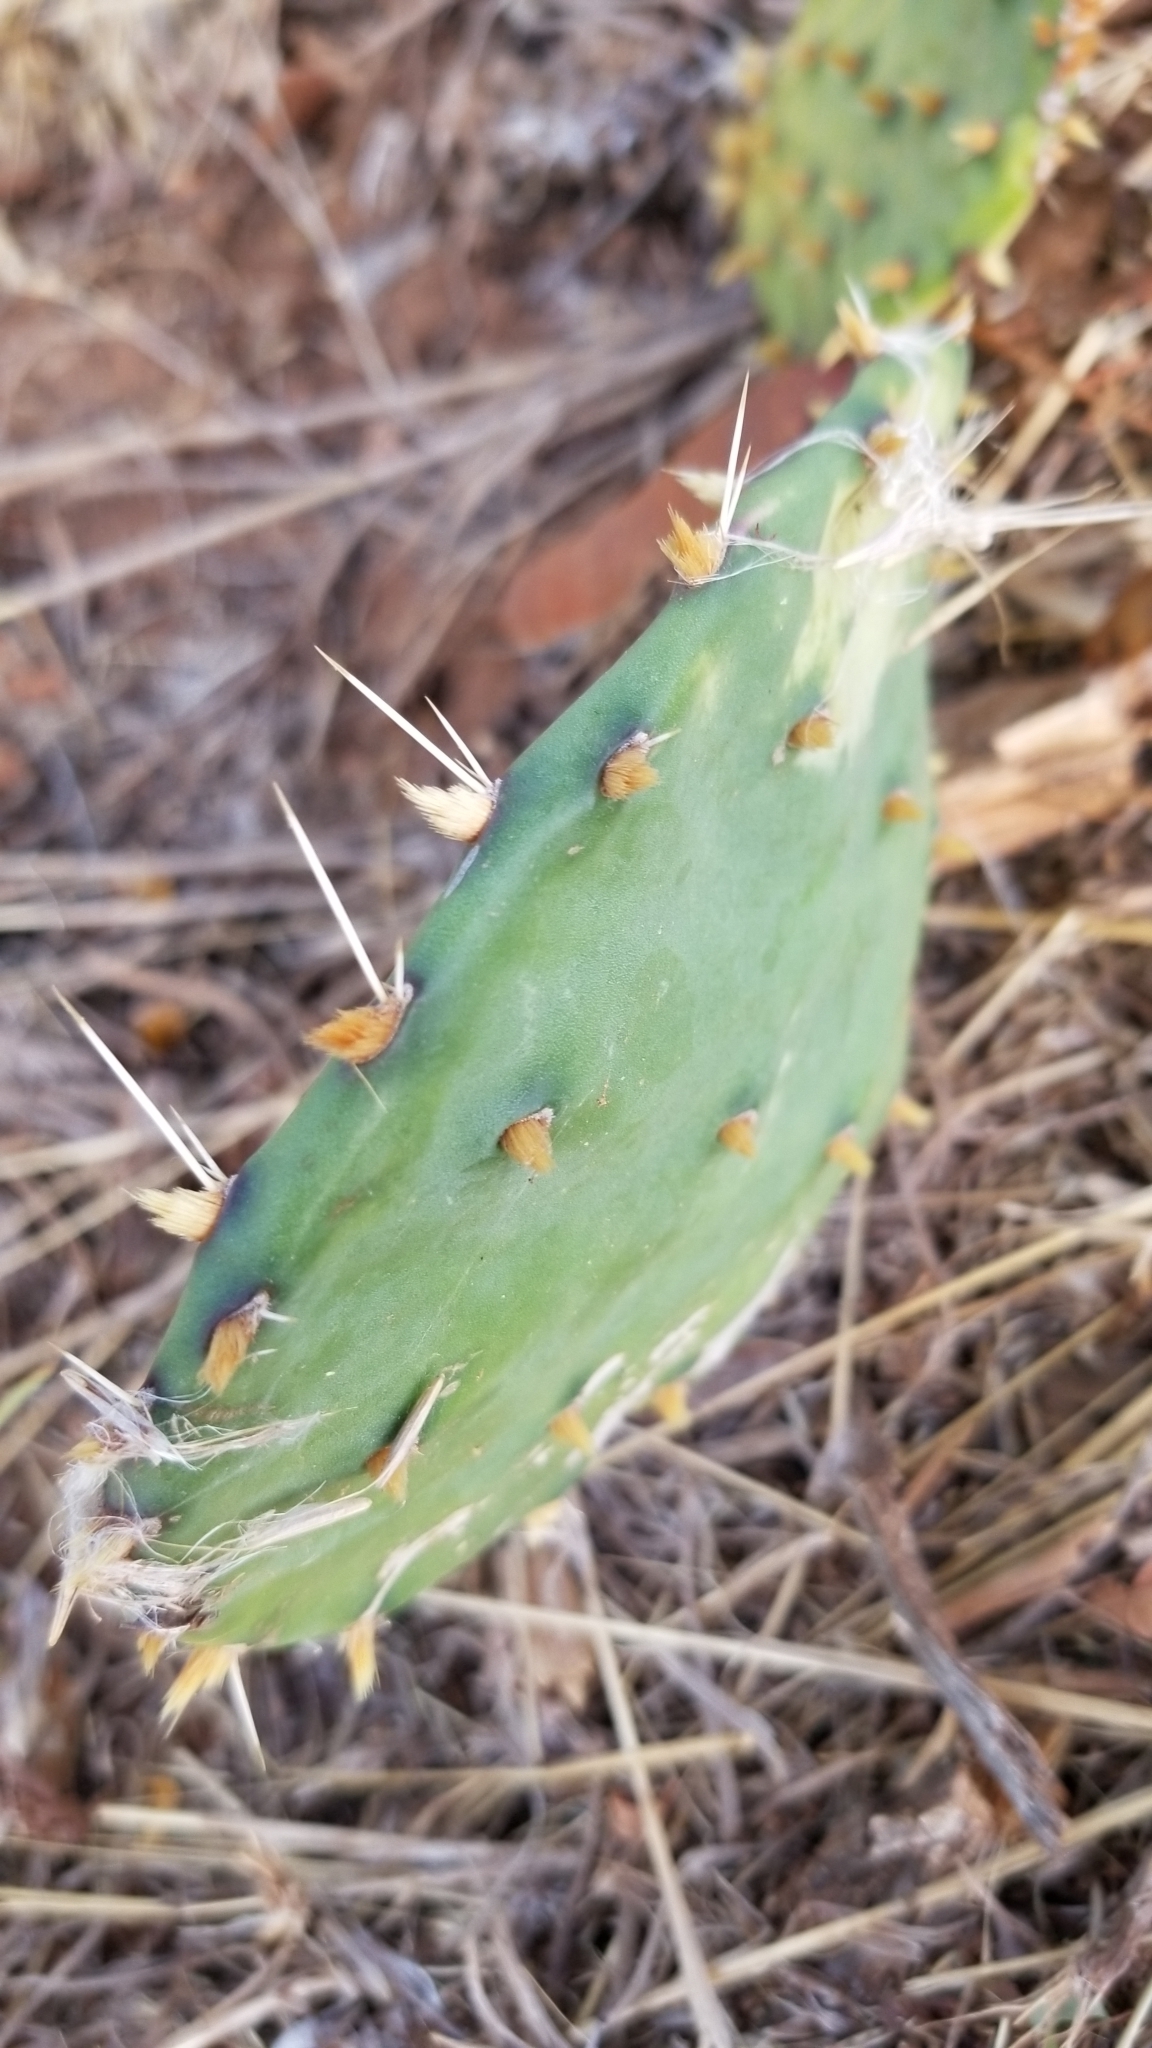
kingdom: Plantae
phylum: Tracheophyta
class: Magnoliopsida
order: Caryophyllales
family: Cactaceae
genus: Opuntia
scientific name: Opuntia macrorhiza
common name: Grassland pricklypear
